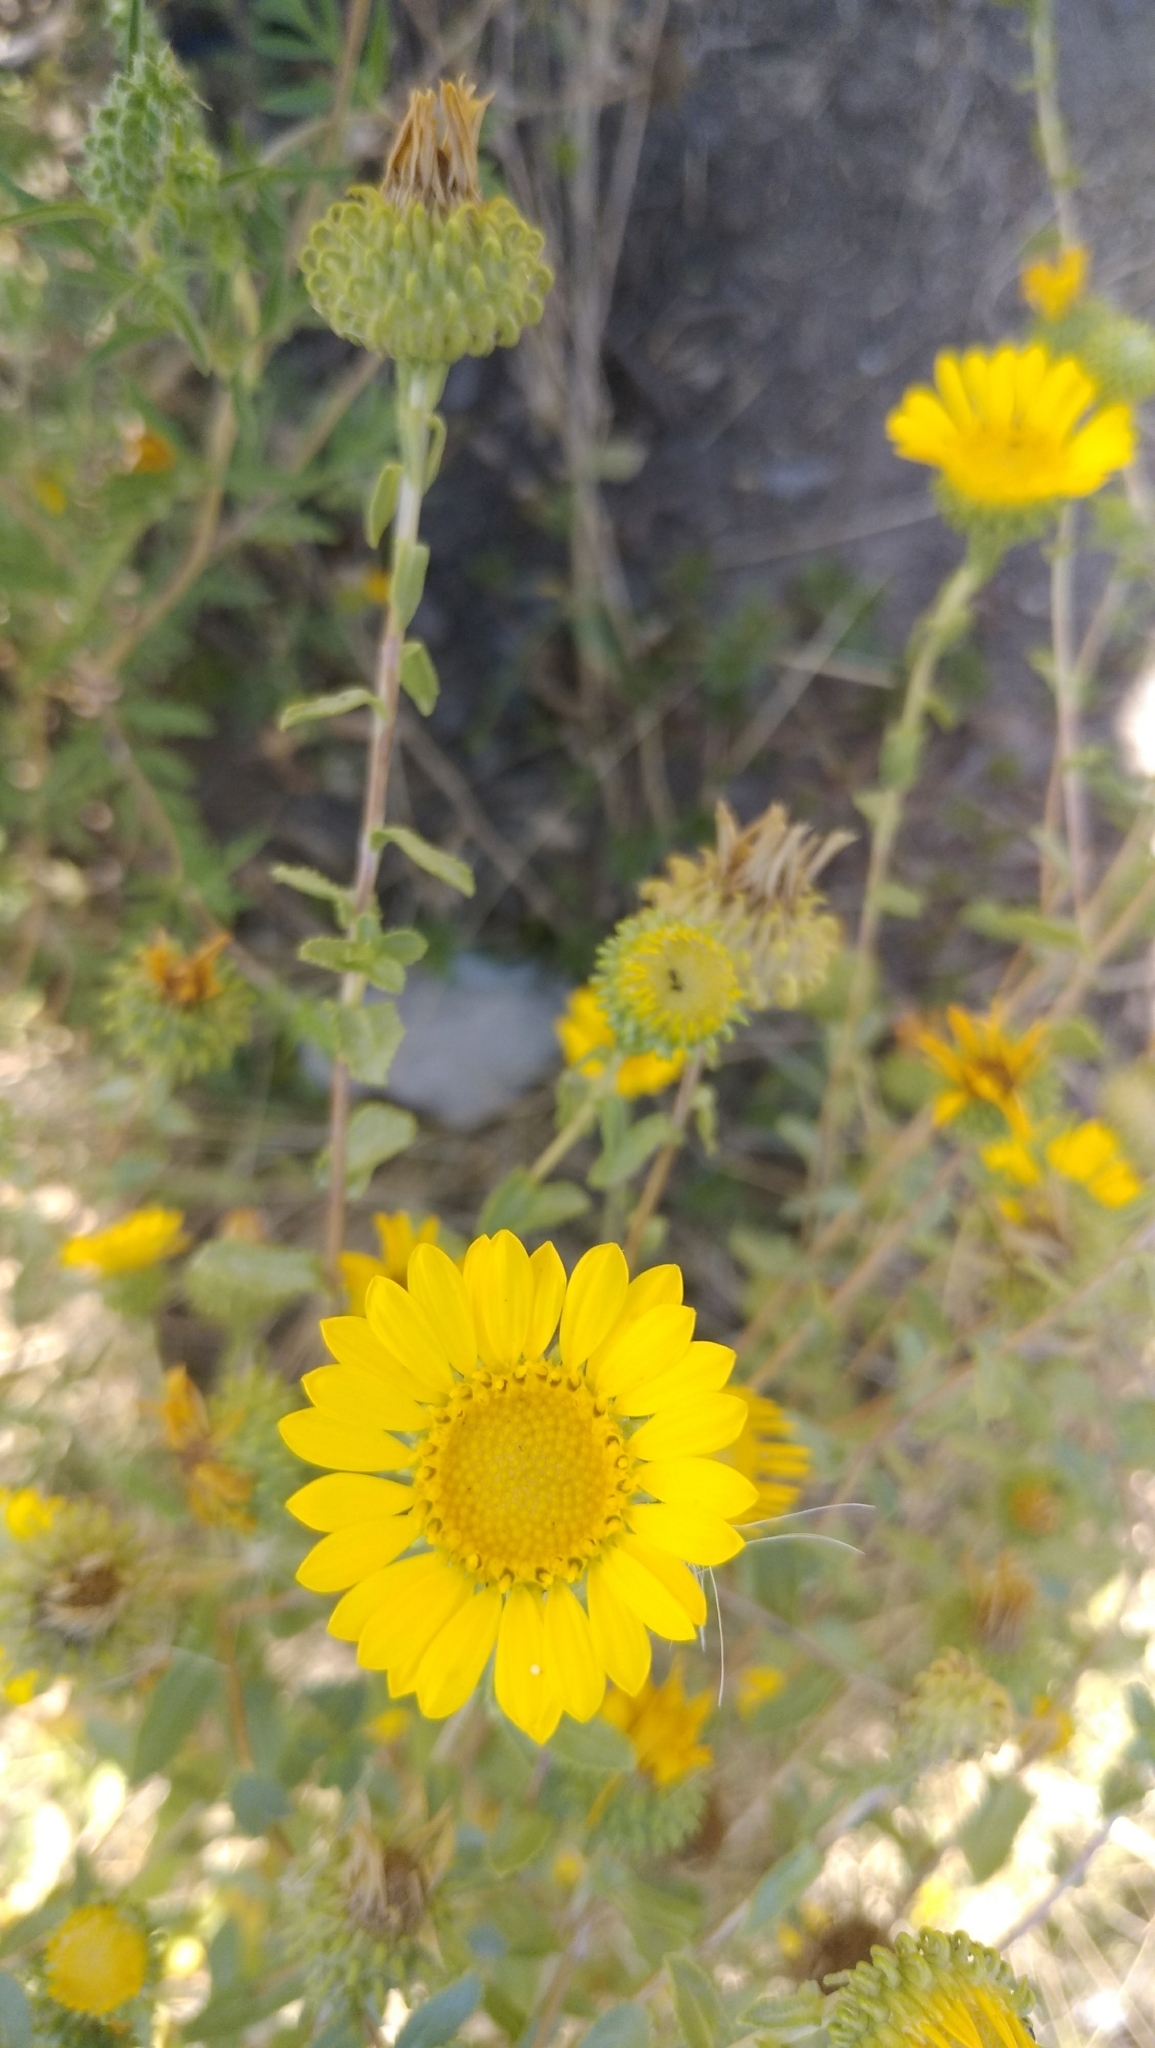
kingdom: Plantae
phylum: Tracheophyta
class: Magnoliopsida
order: Asterales
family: Asteraceae
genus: Grindelia
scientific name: Grindelia squarrosa
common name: Curly-cup gumweed
